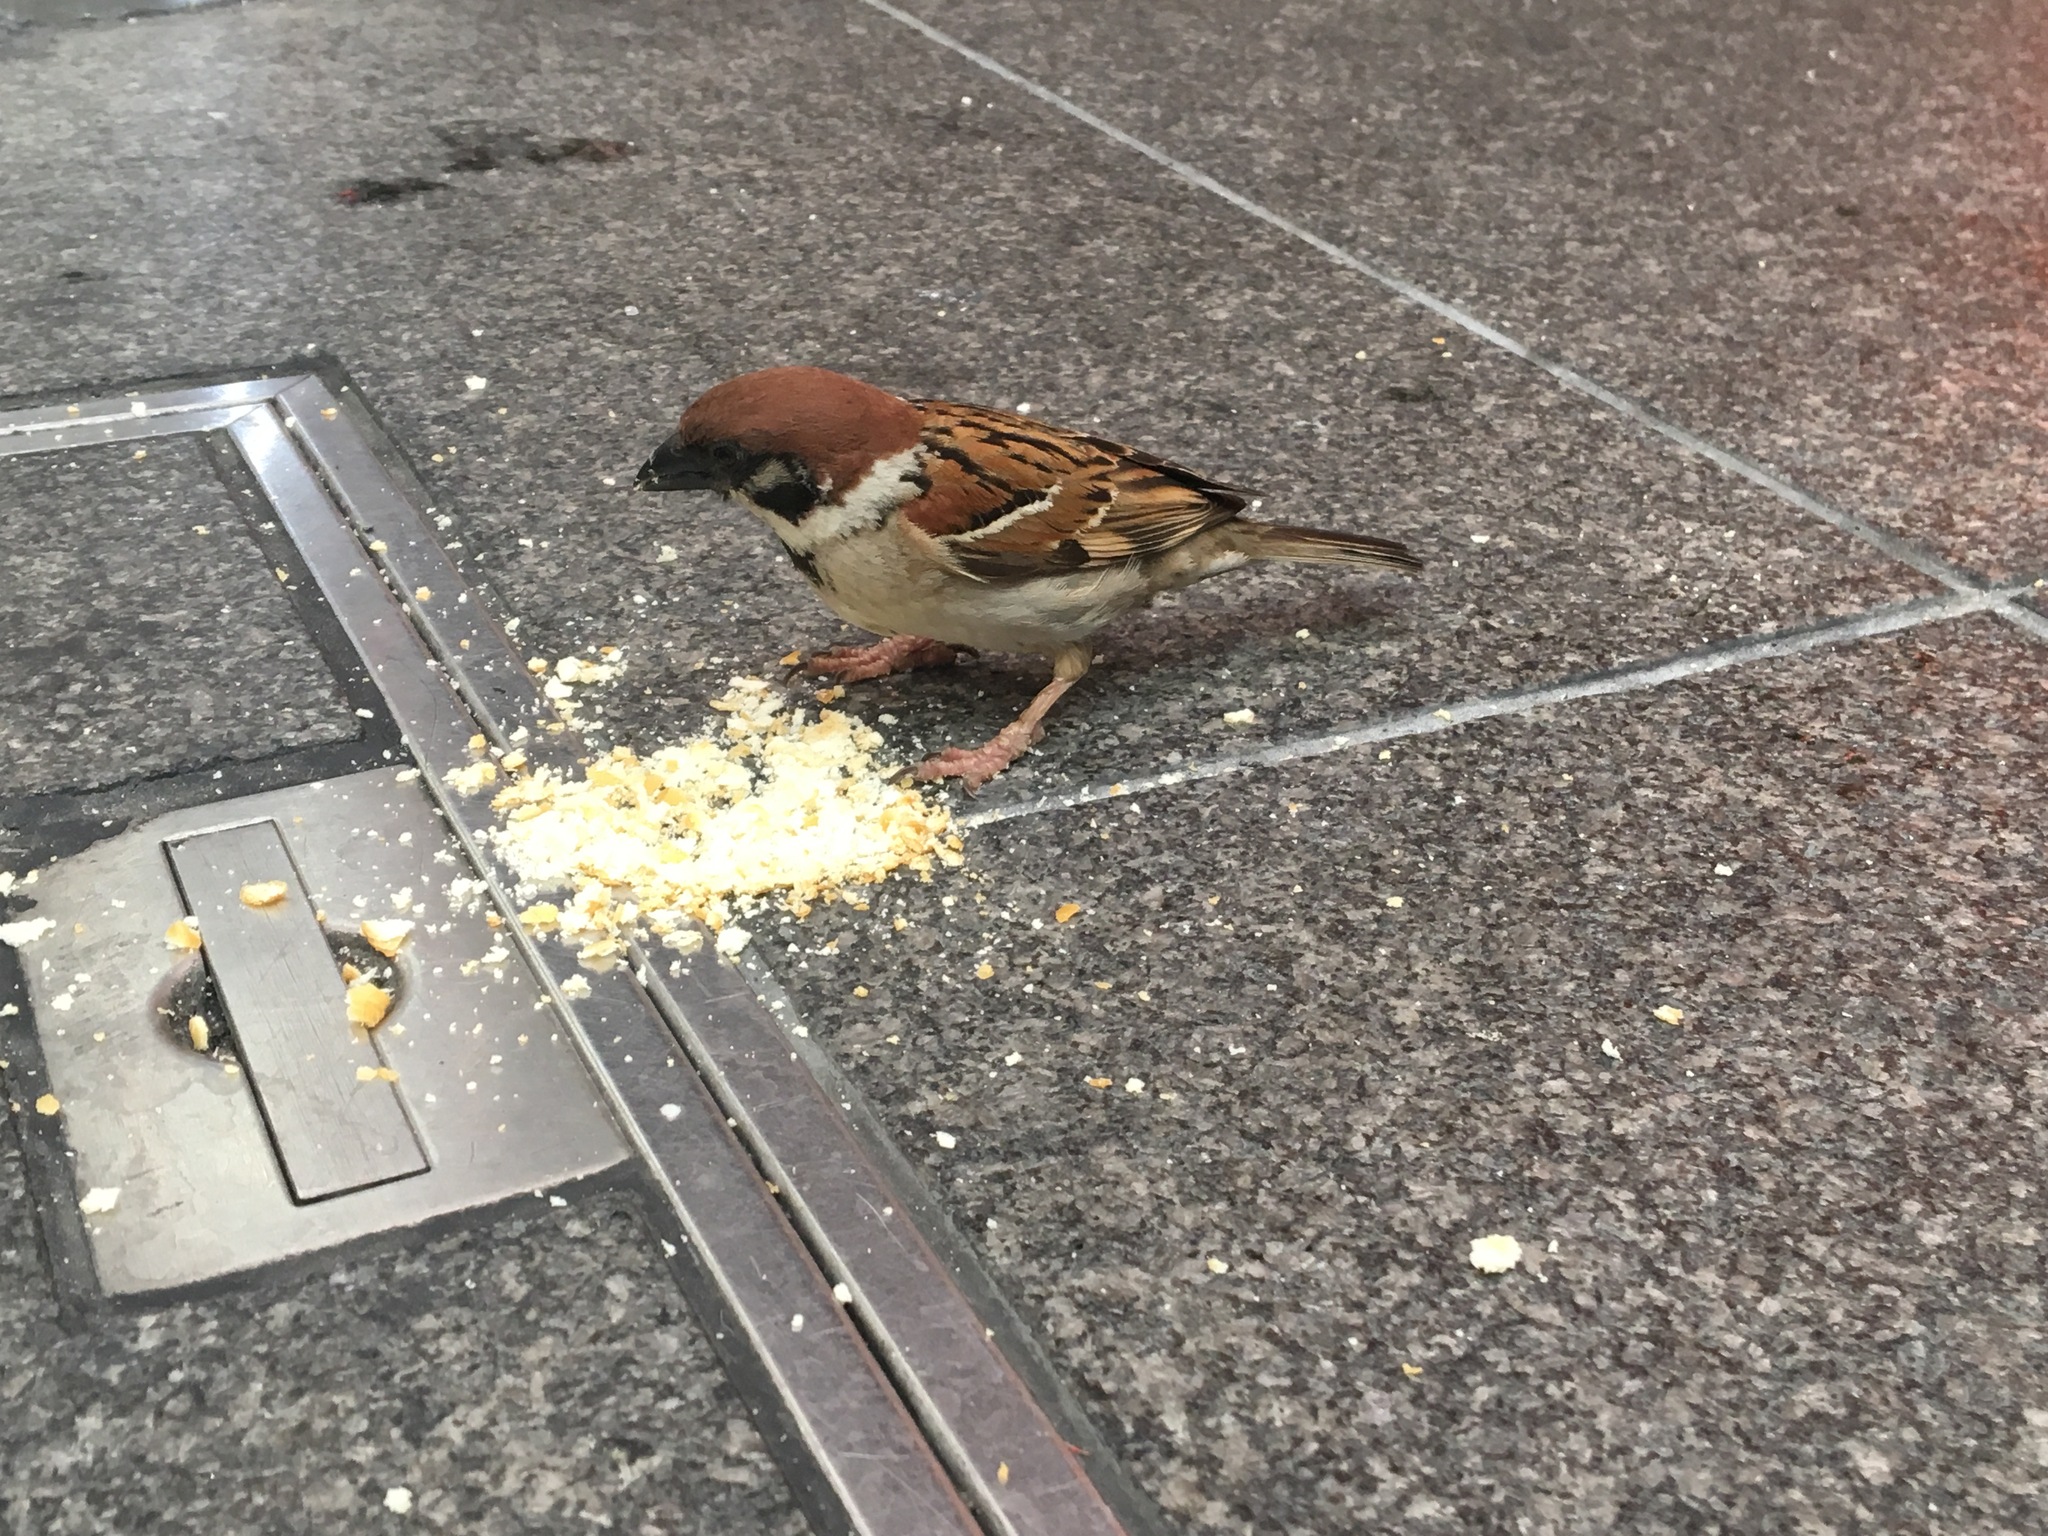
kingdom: Animalia
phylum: Chordata
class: Aves
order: Passeriformes
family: Passeridae
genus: Passer
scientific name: Passer montanus
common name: Eurasian tree sparrow
